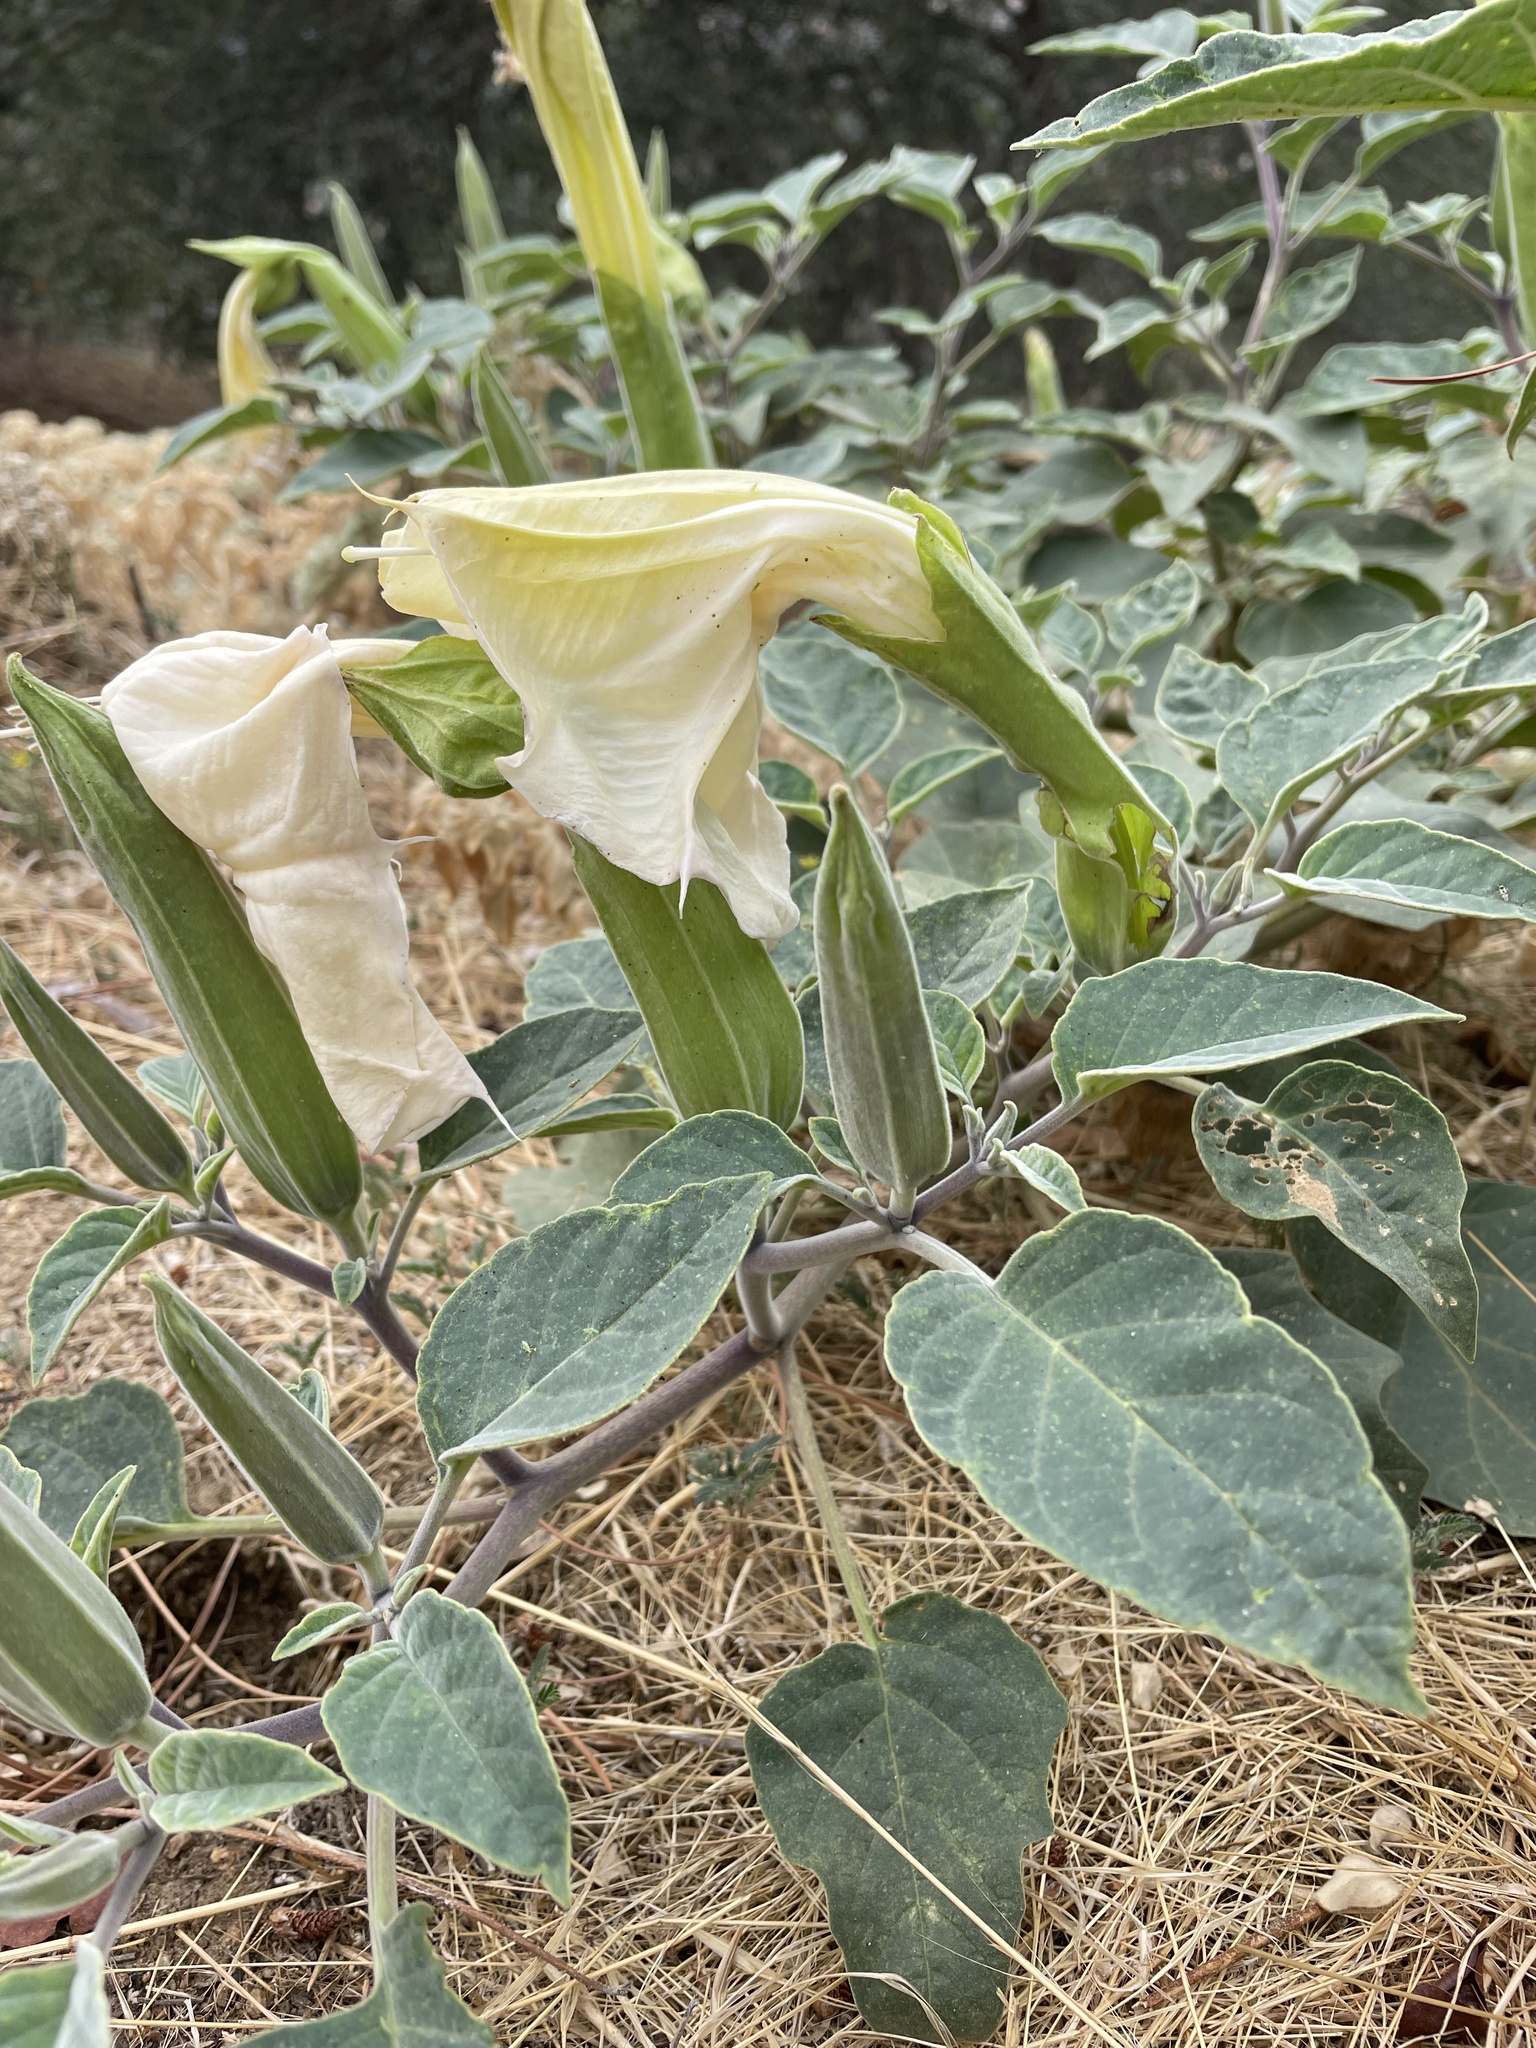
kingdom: Plantae
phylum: Tracheophyta
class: Magnoliopsida
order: Solanales
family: Solanaceae
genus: Datura
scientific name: Datura wrightii
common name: Sacred thorn-apple
